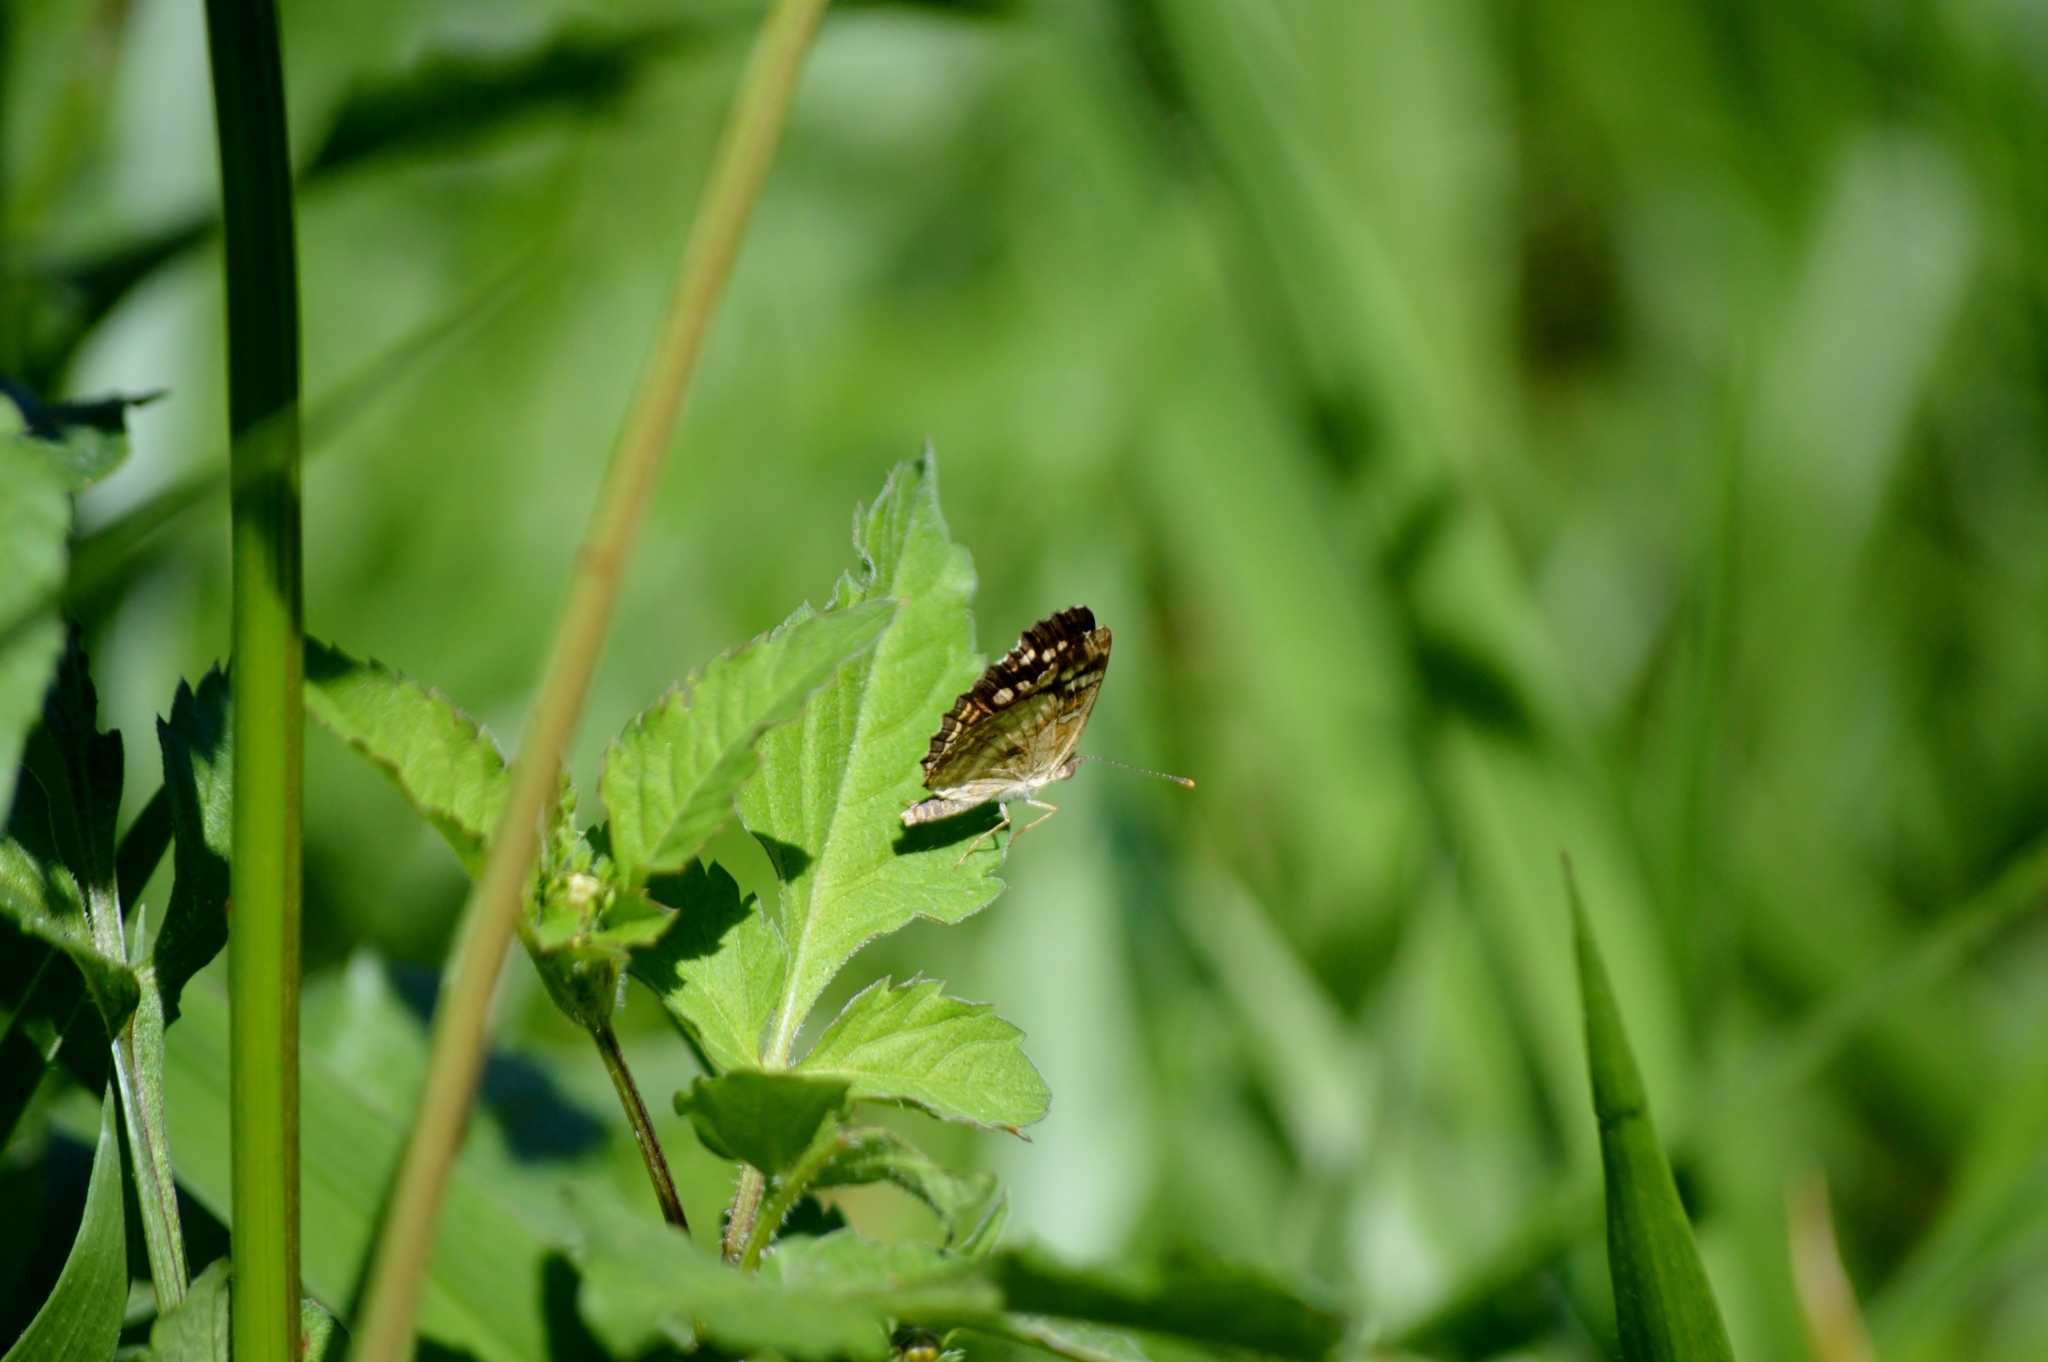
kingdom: Animalia
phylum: Arthropoda
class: Insecta
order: Lepidoptera
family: Nymphalidae
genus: Anthanassa
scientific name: Anthanassa hermas
